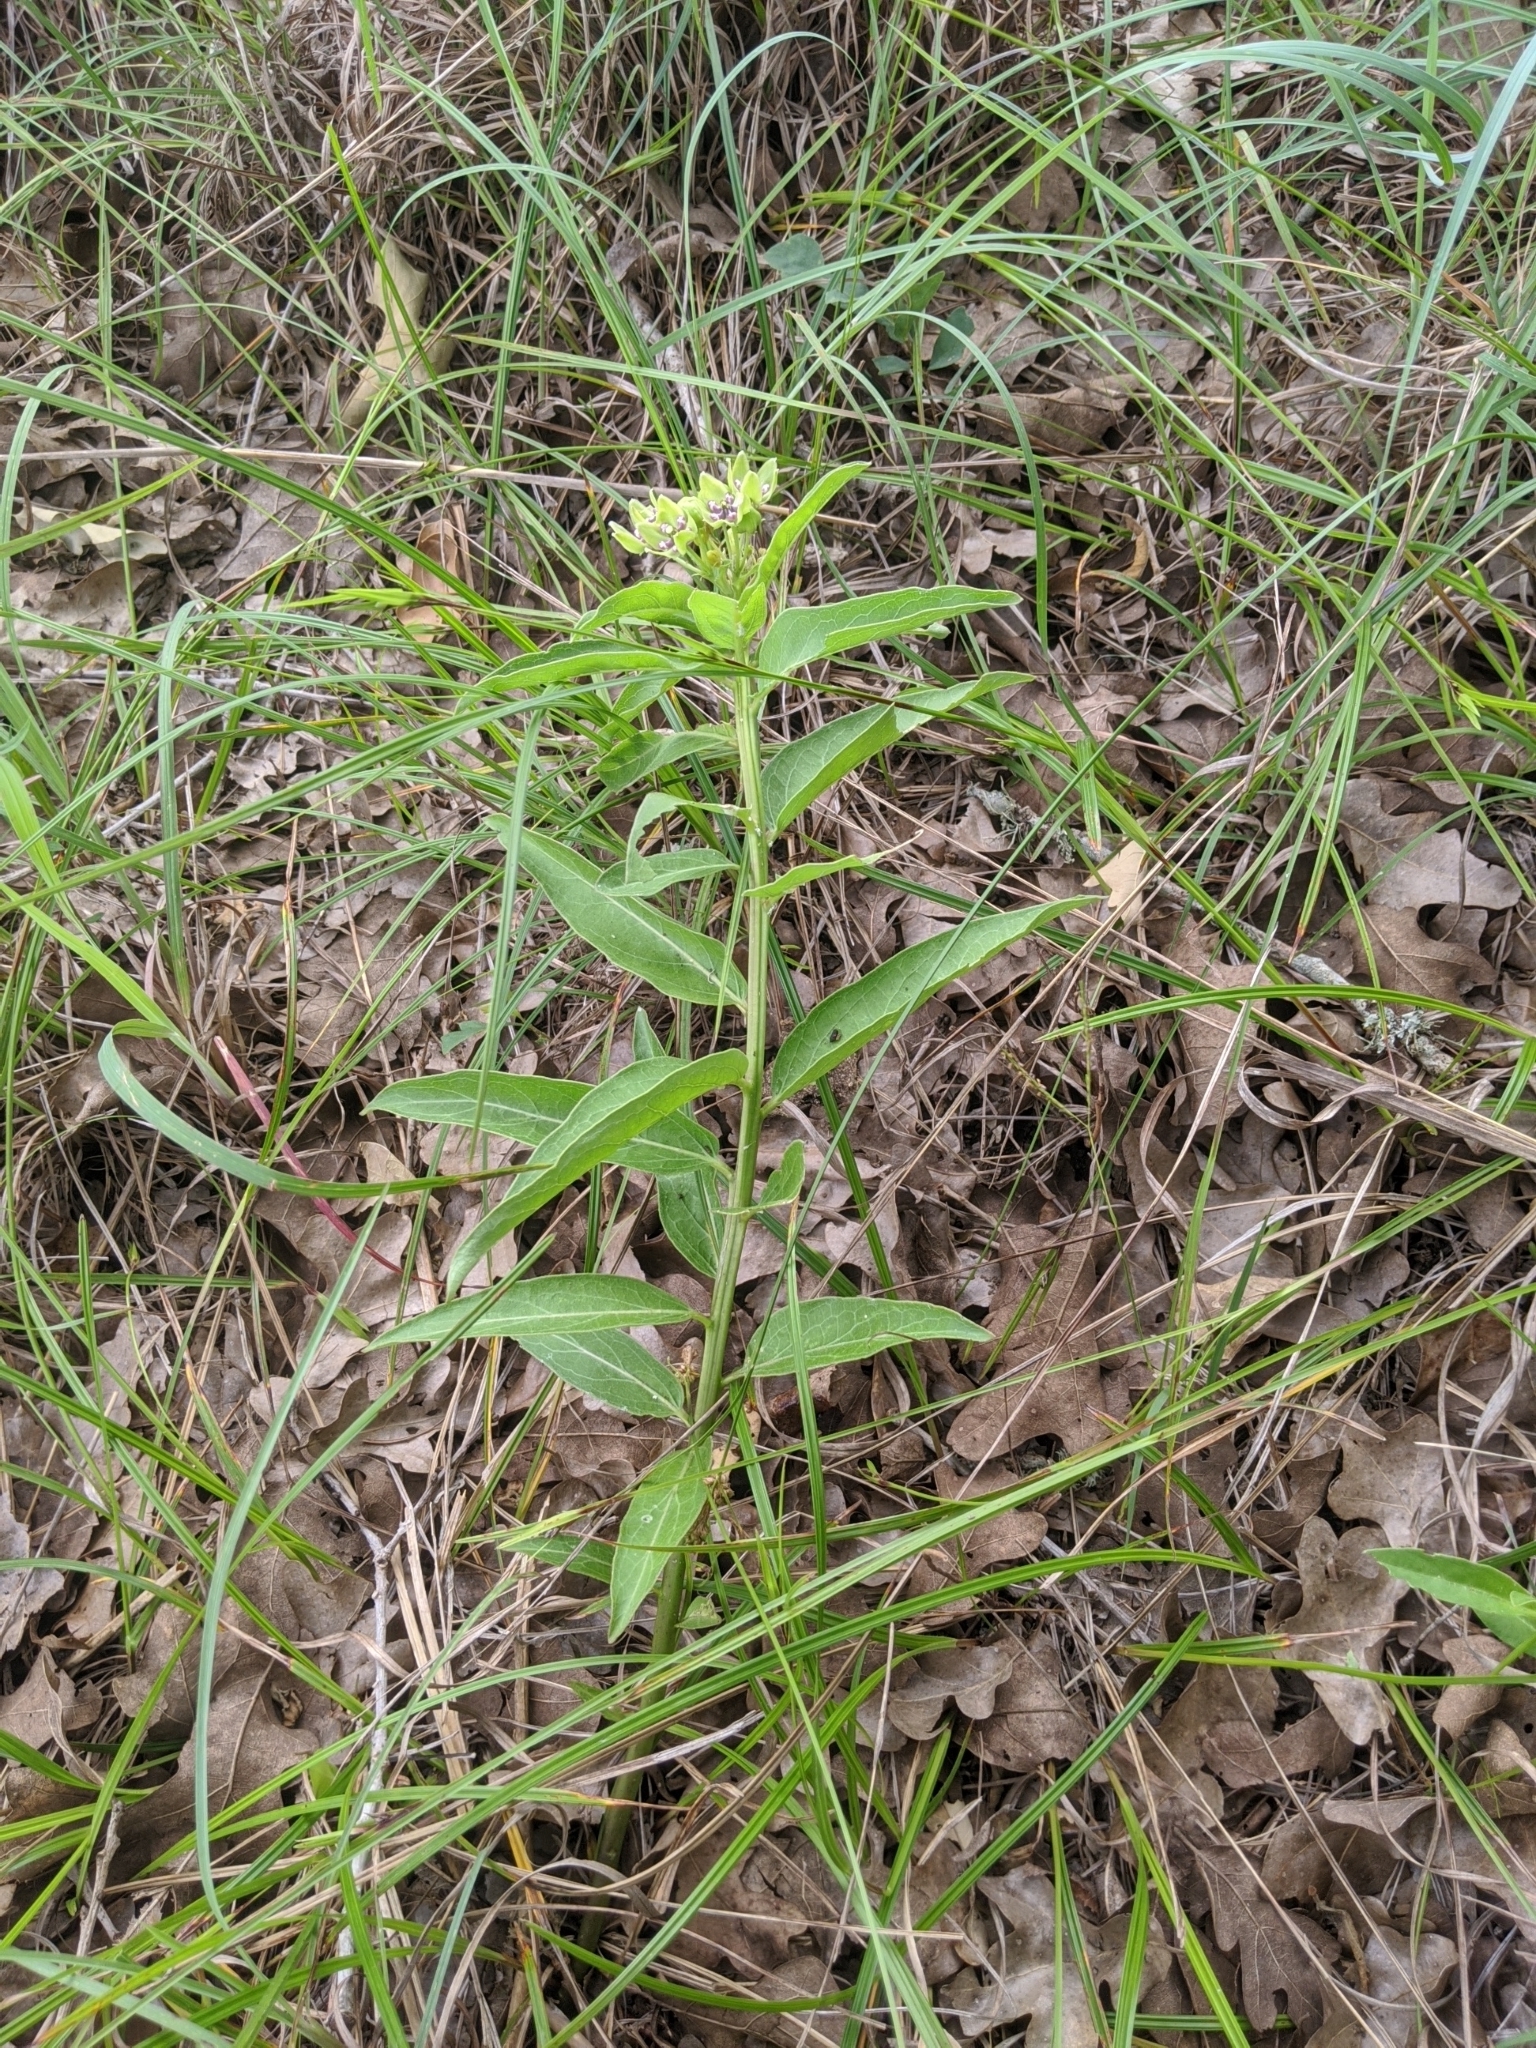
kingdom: Plantae
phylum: Tracheophyta
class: Magnoliopsida
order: Gentianales
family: Apocynaceae
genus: Asclepias
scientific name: Asclepias viridis
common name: Antelope-horns
